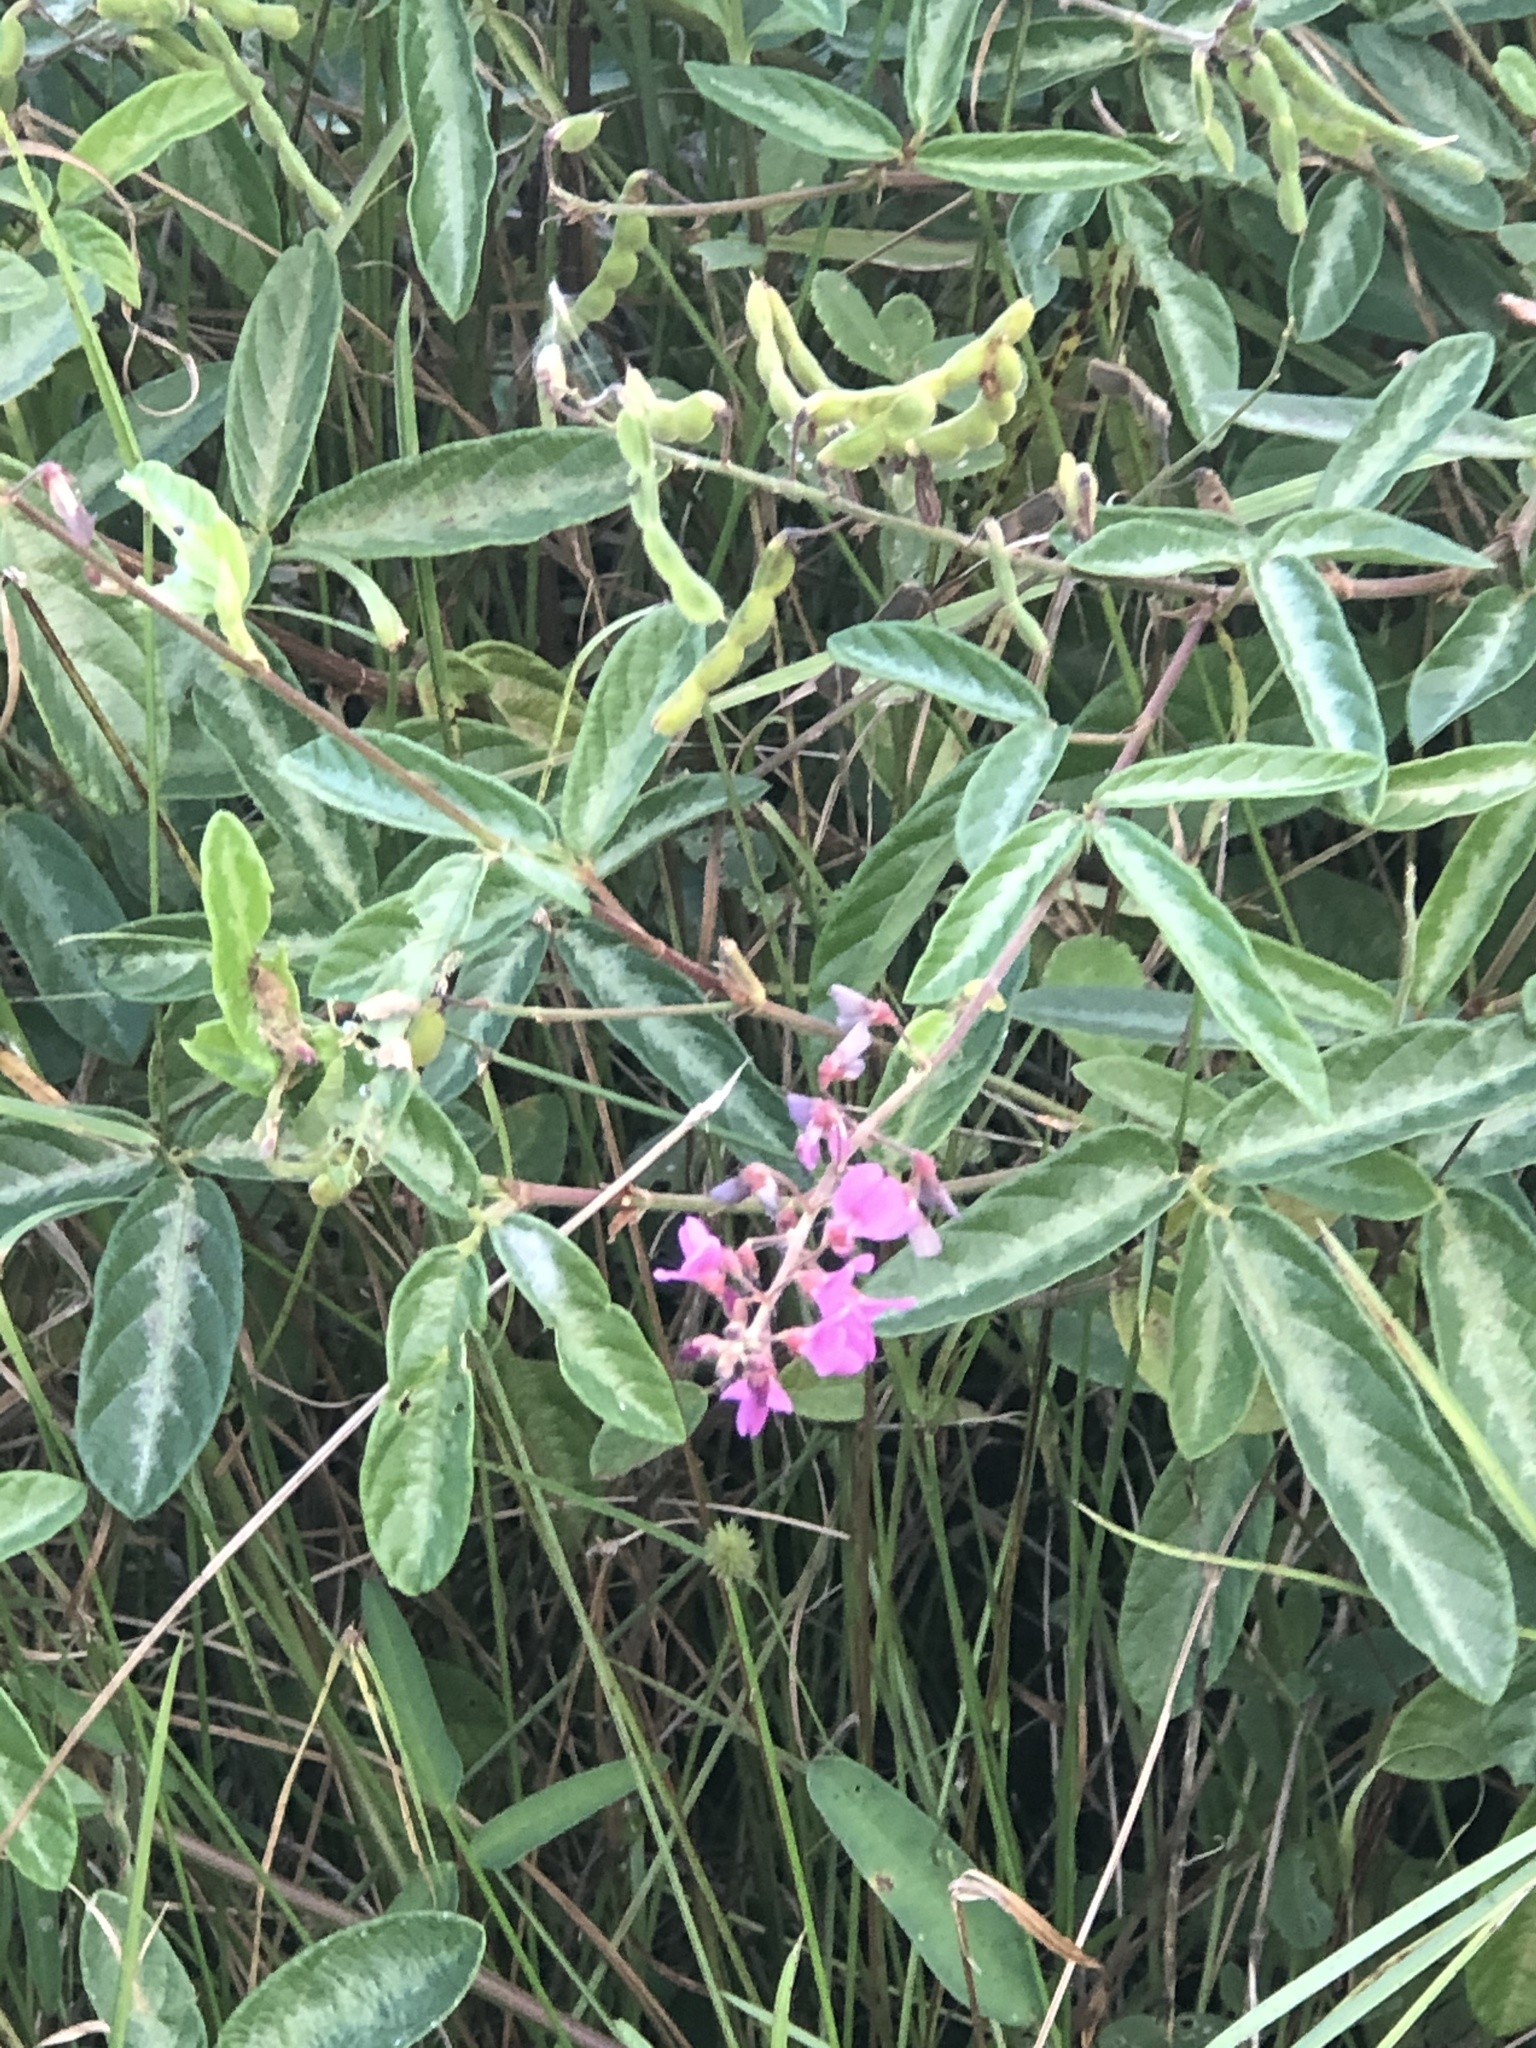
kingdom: Plantae
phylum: Tracheophyta
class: Magnoliopsida
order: Fabales
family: Fabaceae
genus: Desmodium
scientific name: Desmodium incanum
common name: Tickclover
